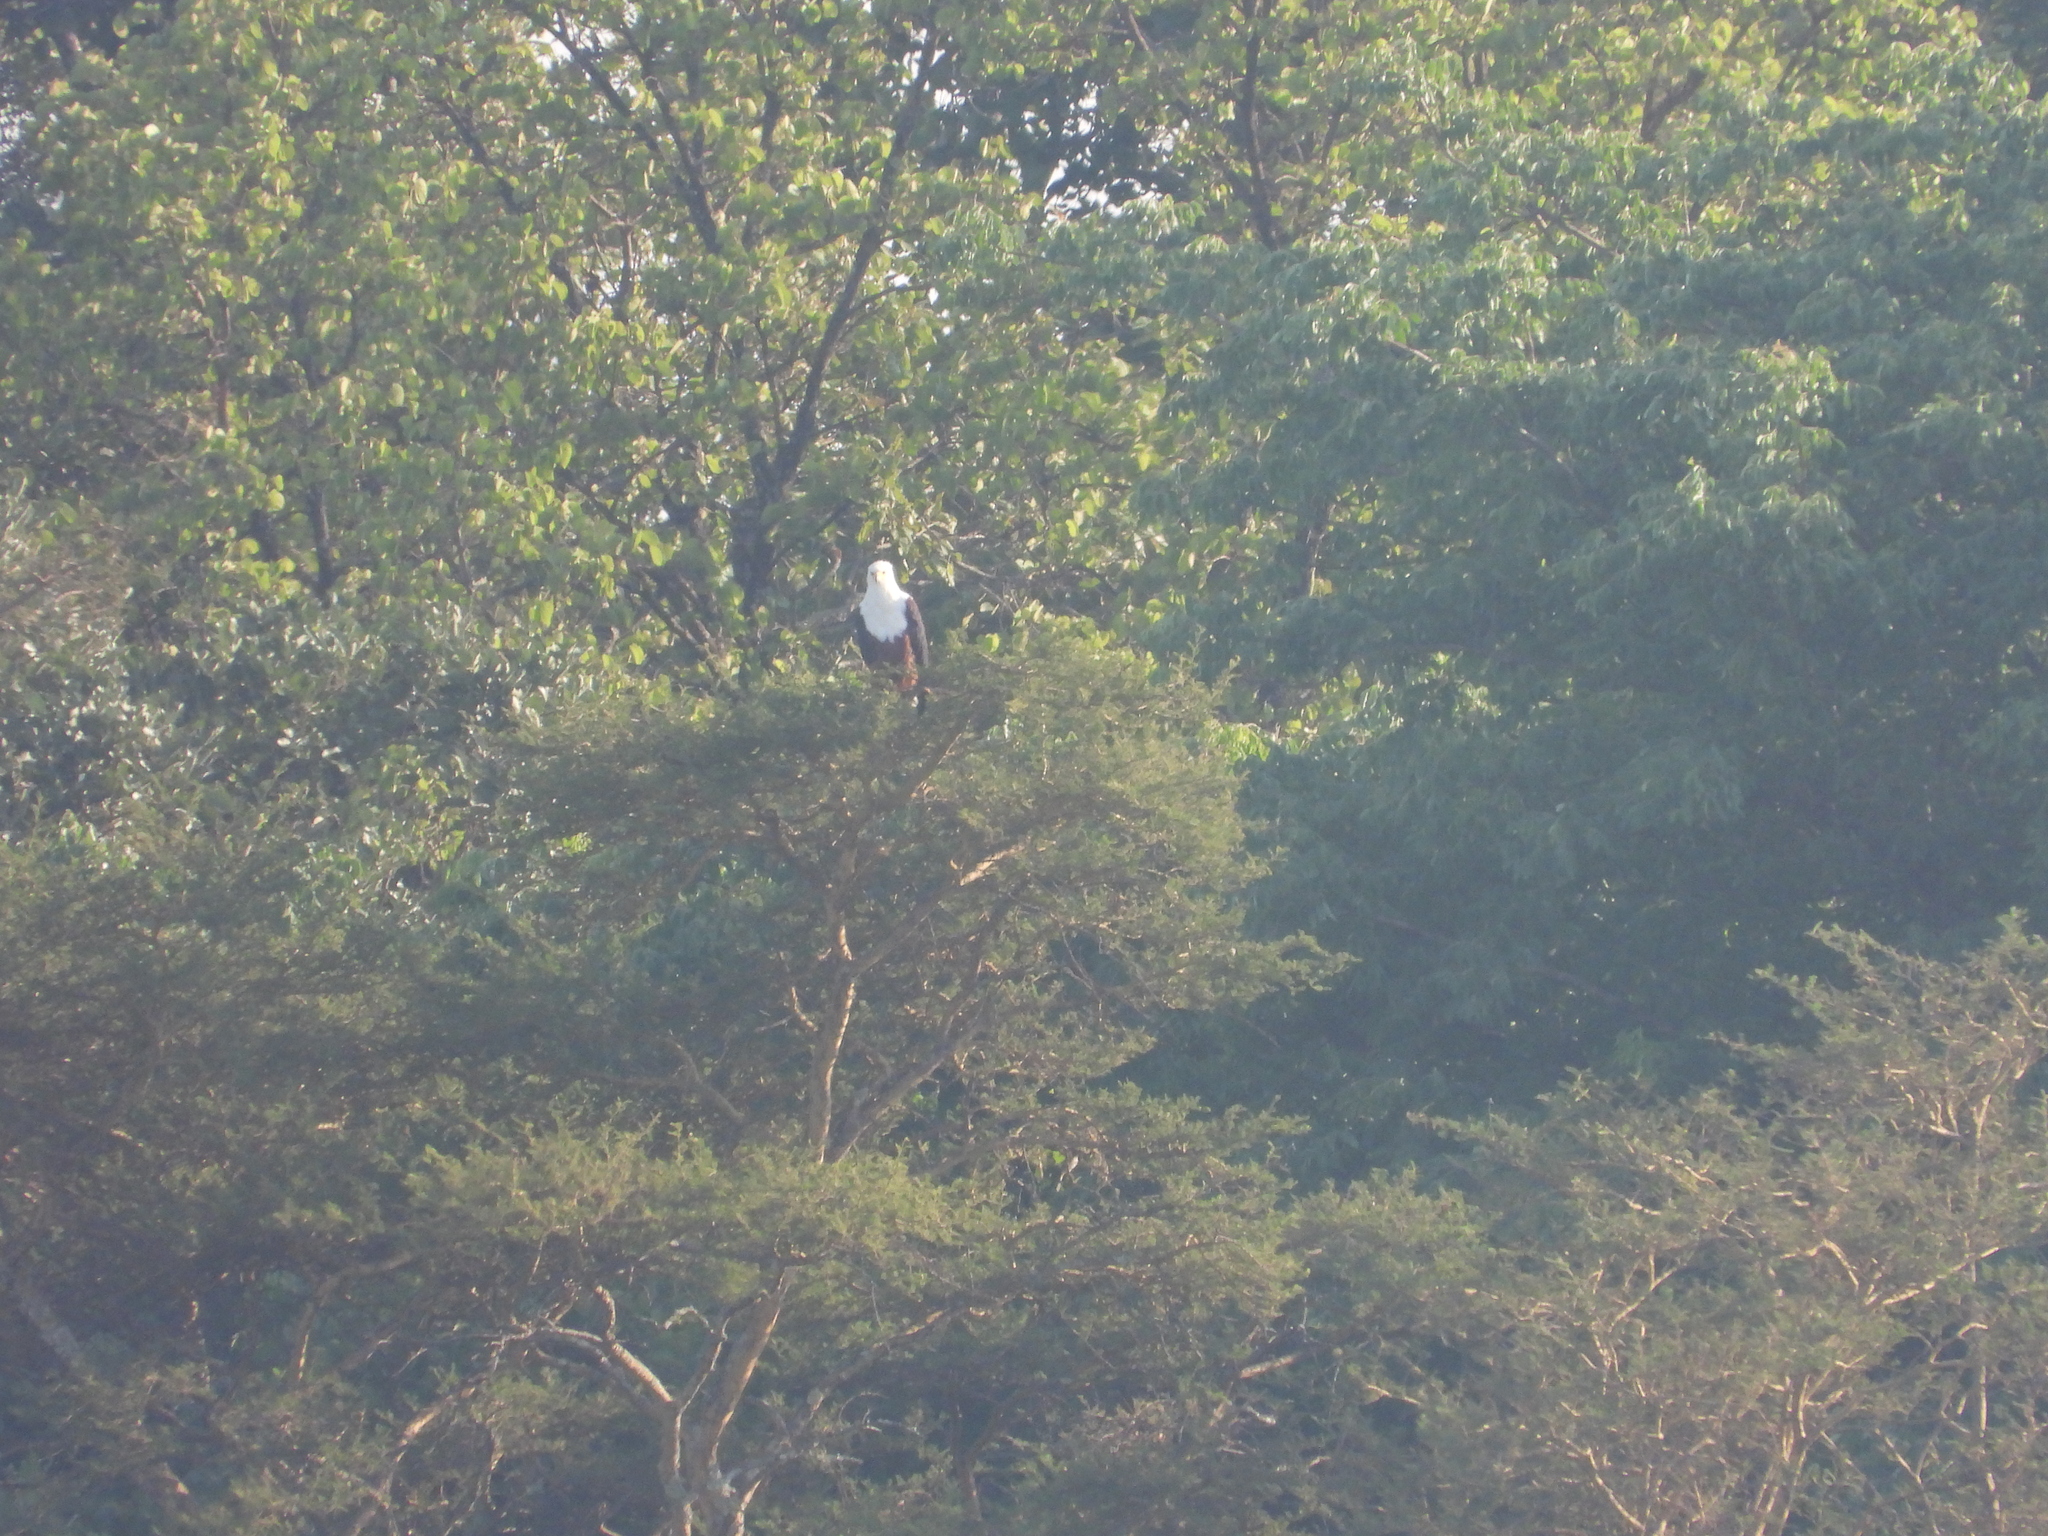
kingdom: Animalia
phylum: Chordata
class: Aves
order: Accipitriformes
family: Accipitridae
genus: Haliaeetus
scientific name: Haliaeetus vocifer
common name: African fish eagle
